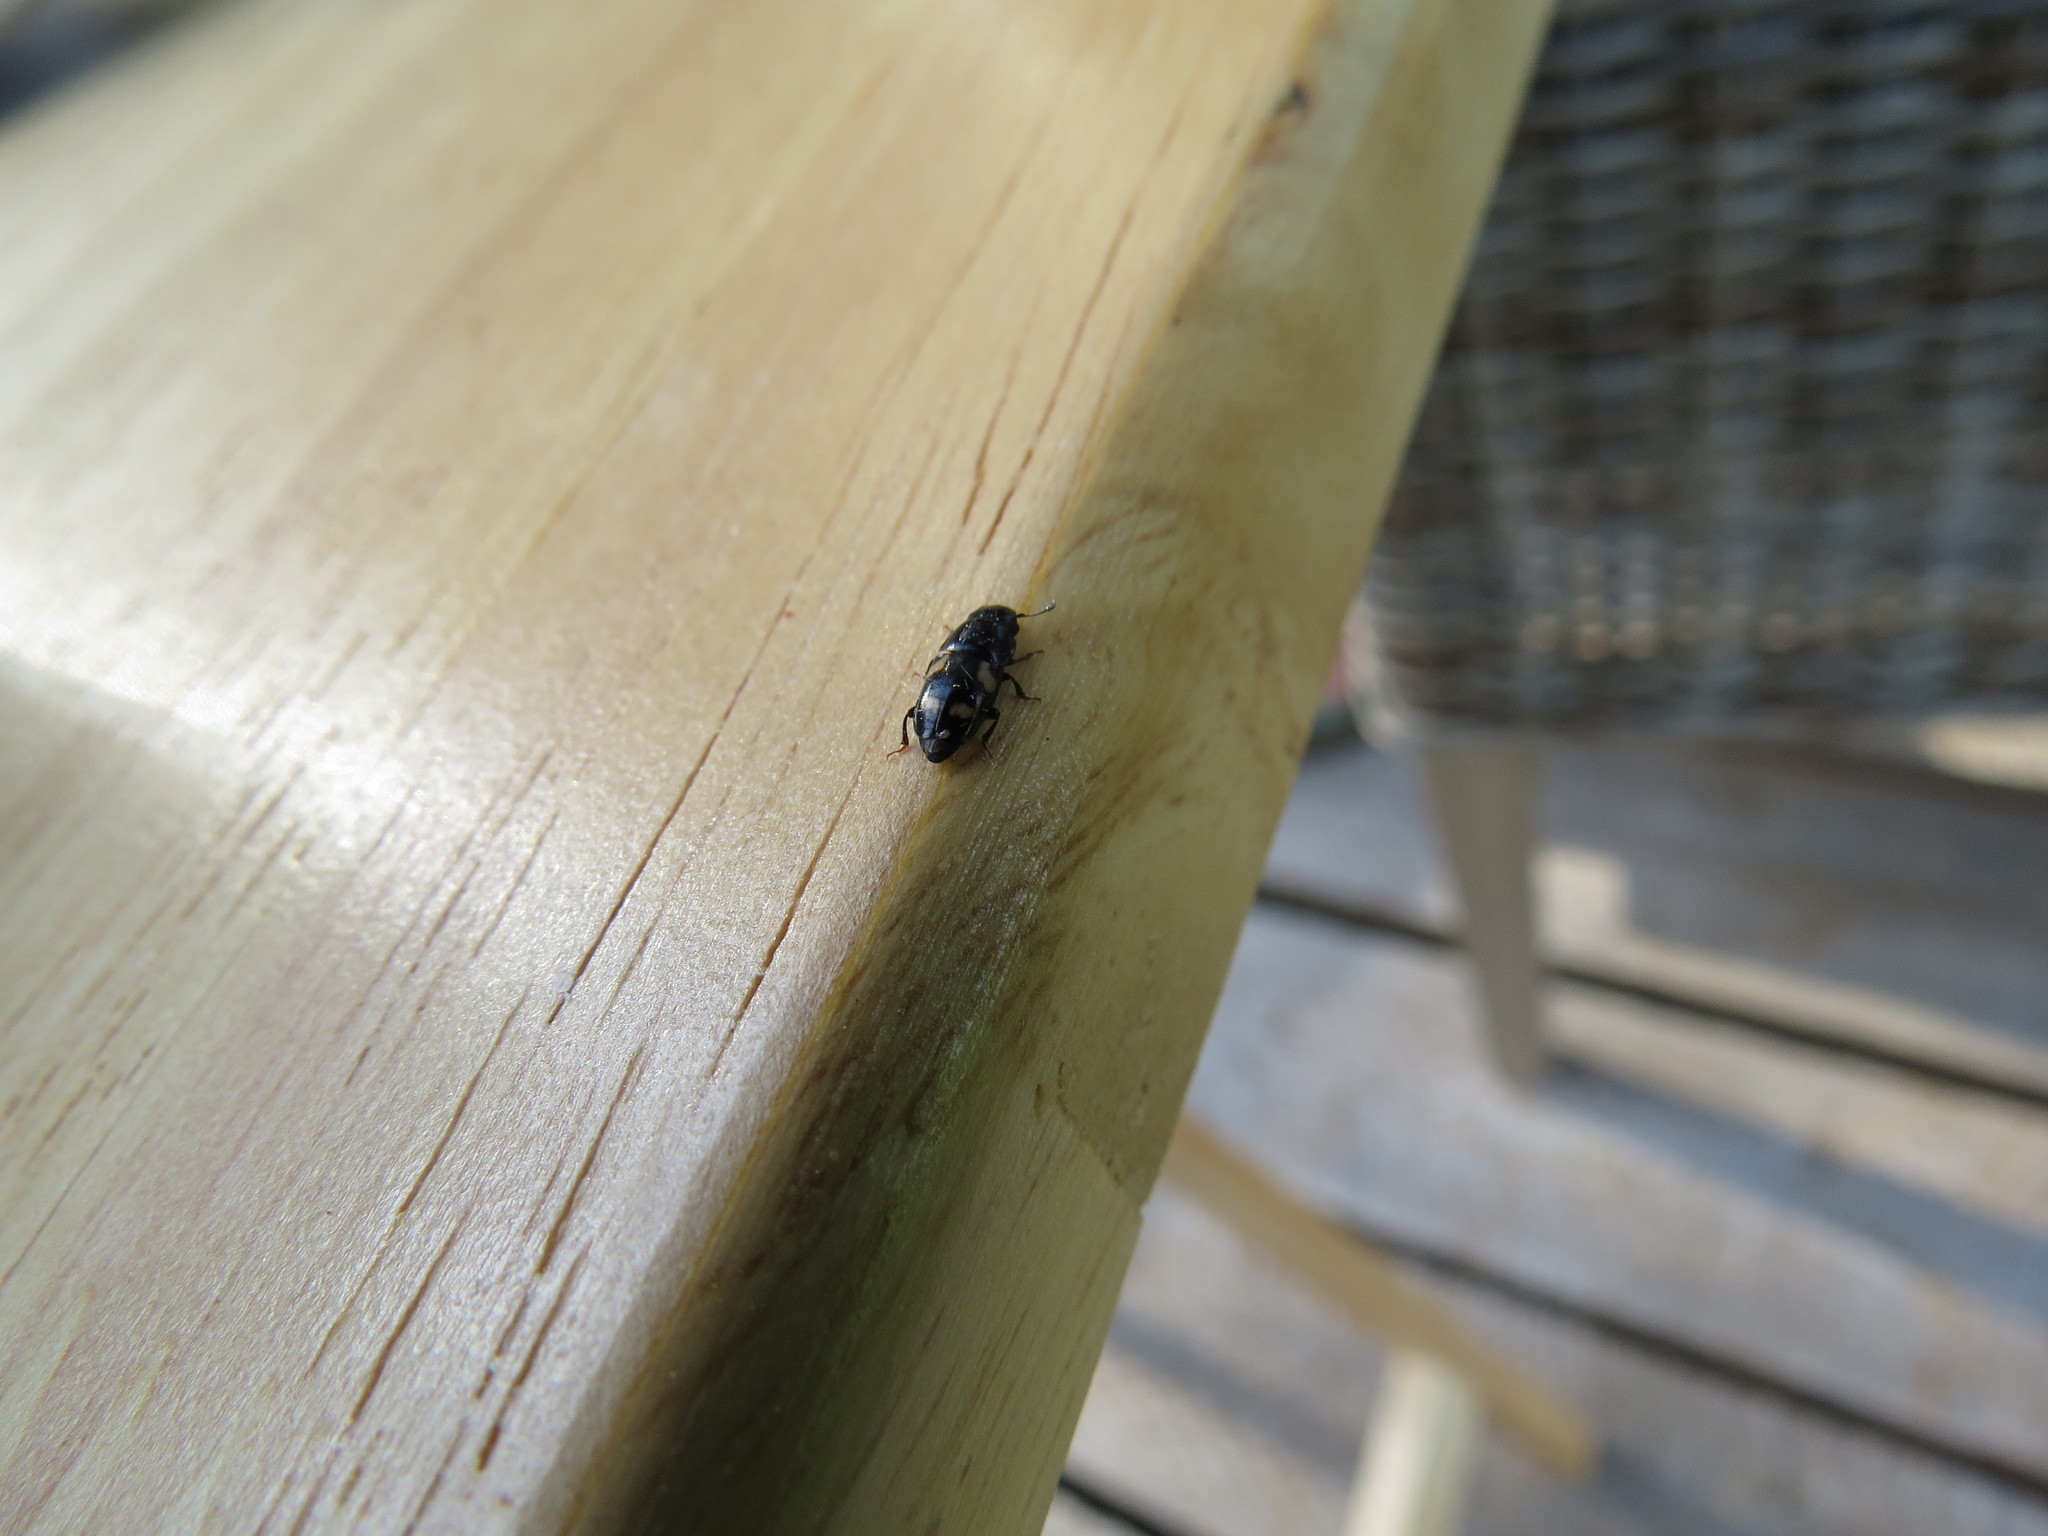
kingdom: Animalia
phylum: Arthropoda
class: Insecta
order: Coleoptera
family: Nitidulidae
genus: Glischrochilus
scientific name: Glischrochilus quadrisignatus
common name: Picnic beetle
